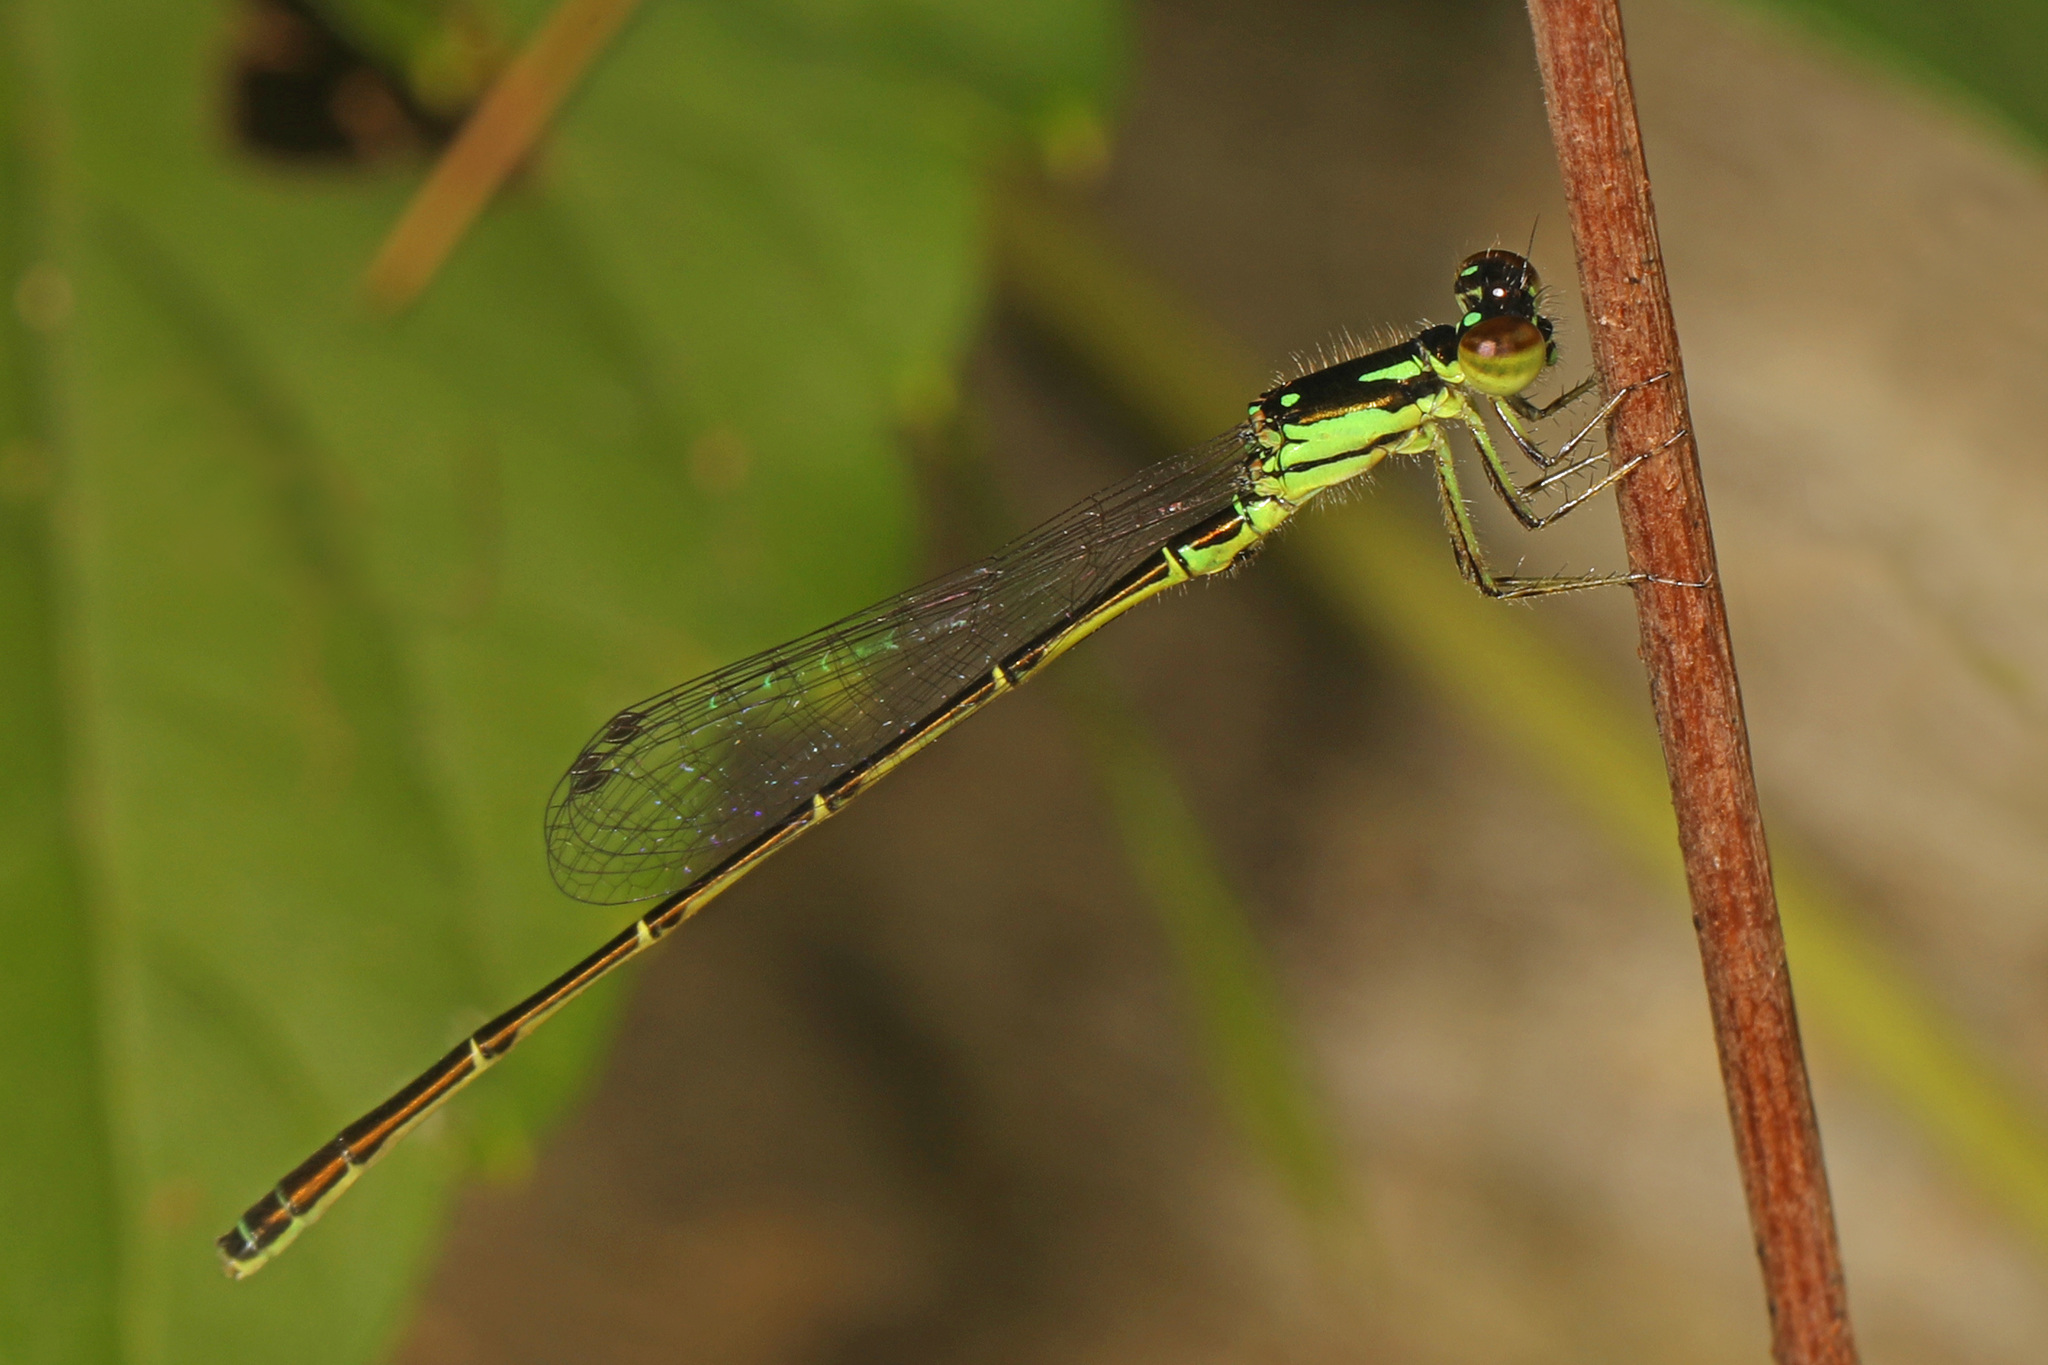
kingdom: Animalia
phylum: Arthropoda
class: Insecta
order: Odonata
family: Coenagrionidae
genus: Ischnura
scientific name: Ischnura posita
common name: Fragile forktail
